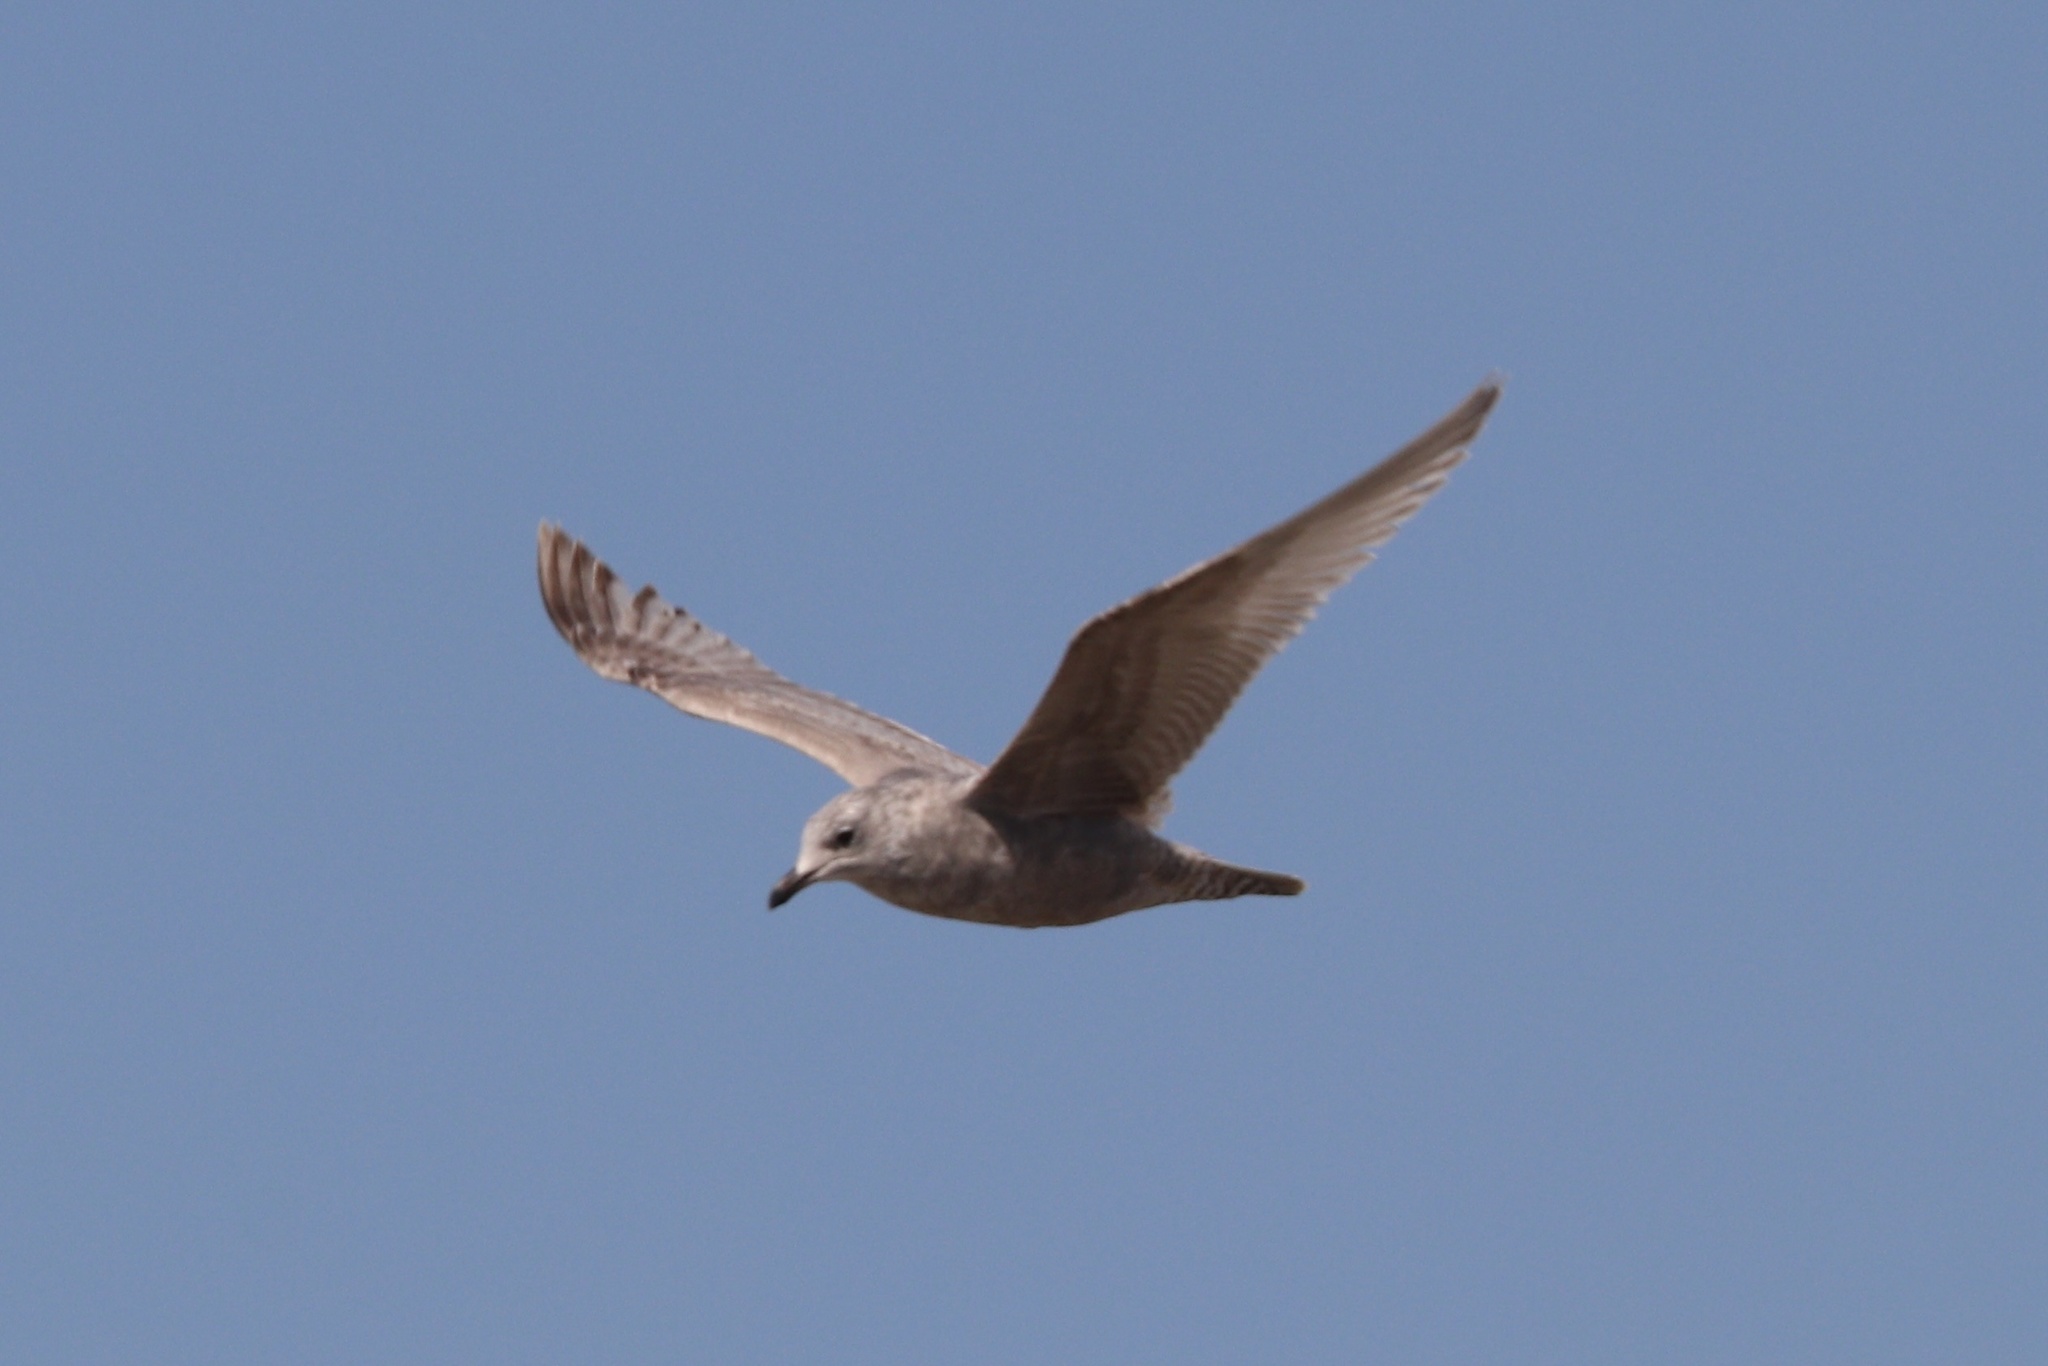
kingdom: Animalia
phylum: Chordata
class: Aves
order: Charadriiformes
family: Laridae
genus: Larus
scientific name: Larus glaucoides
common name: Iceland gull
